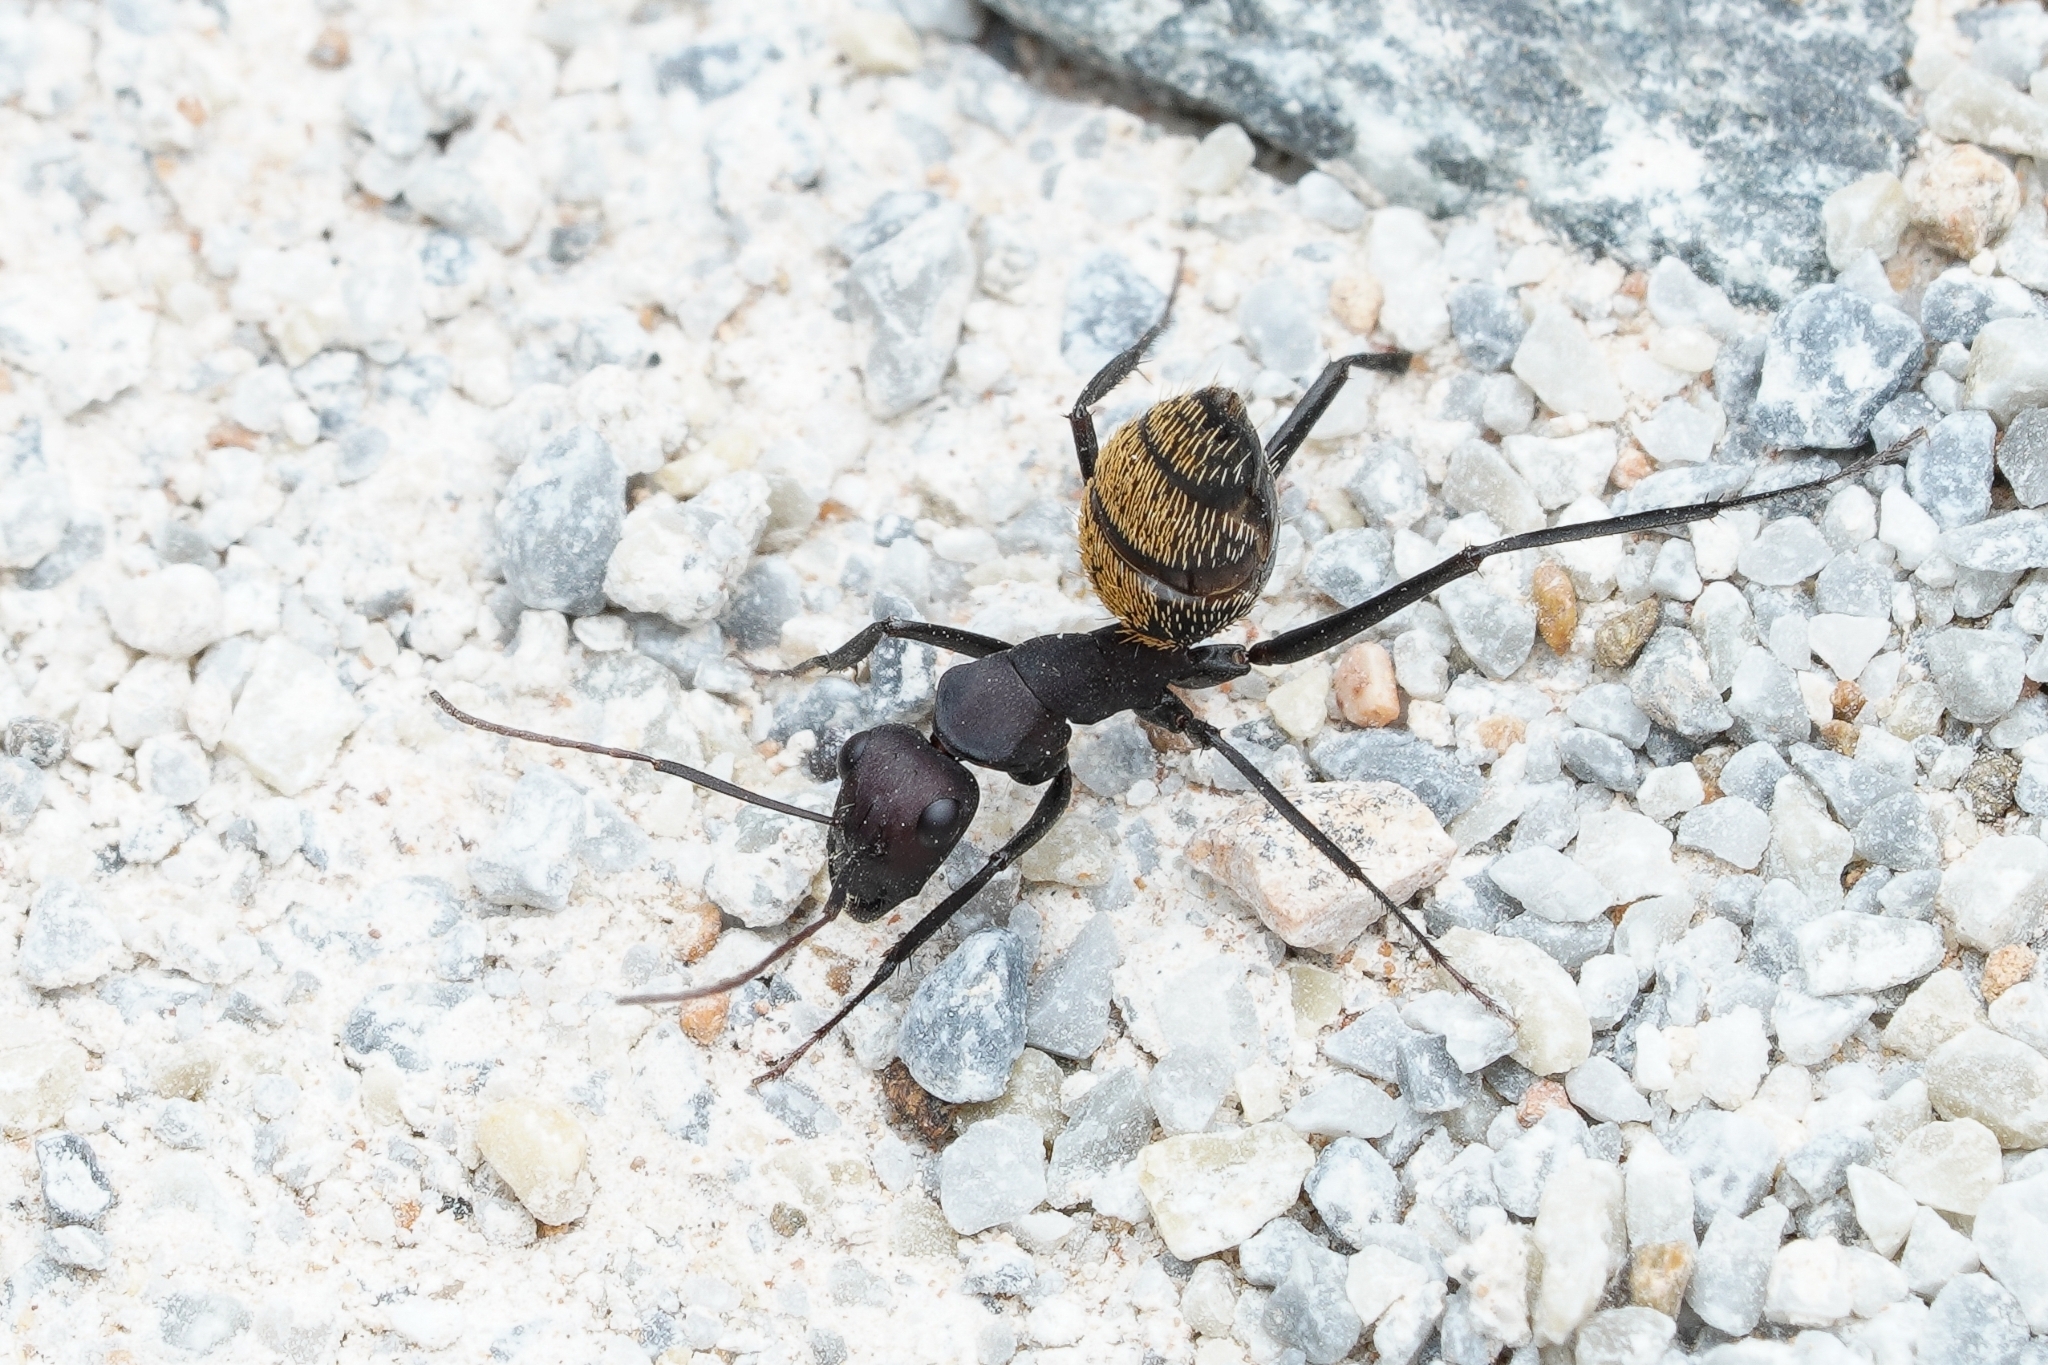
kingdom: Animalia
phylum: Arthropoda
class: Insecta
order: Hymenoptera
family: Formicidae
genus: Camponotus
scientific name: Camponotus fulvopilosus
